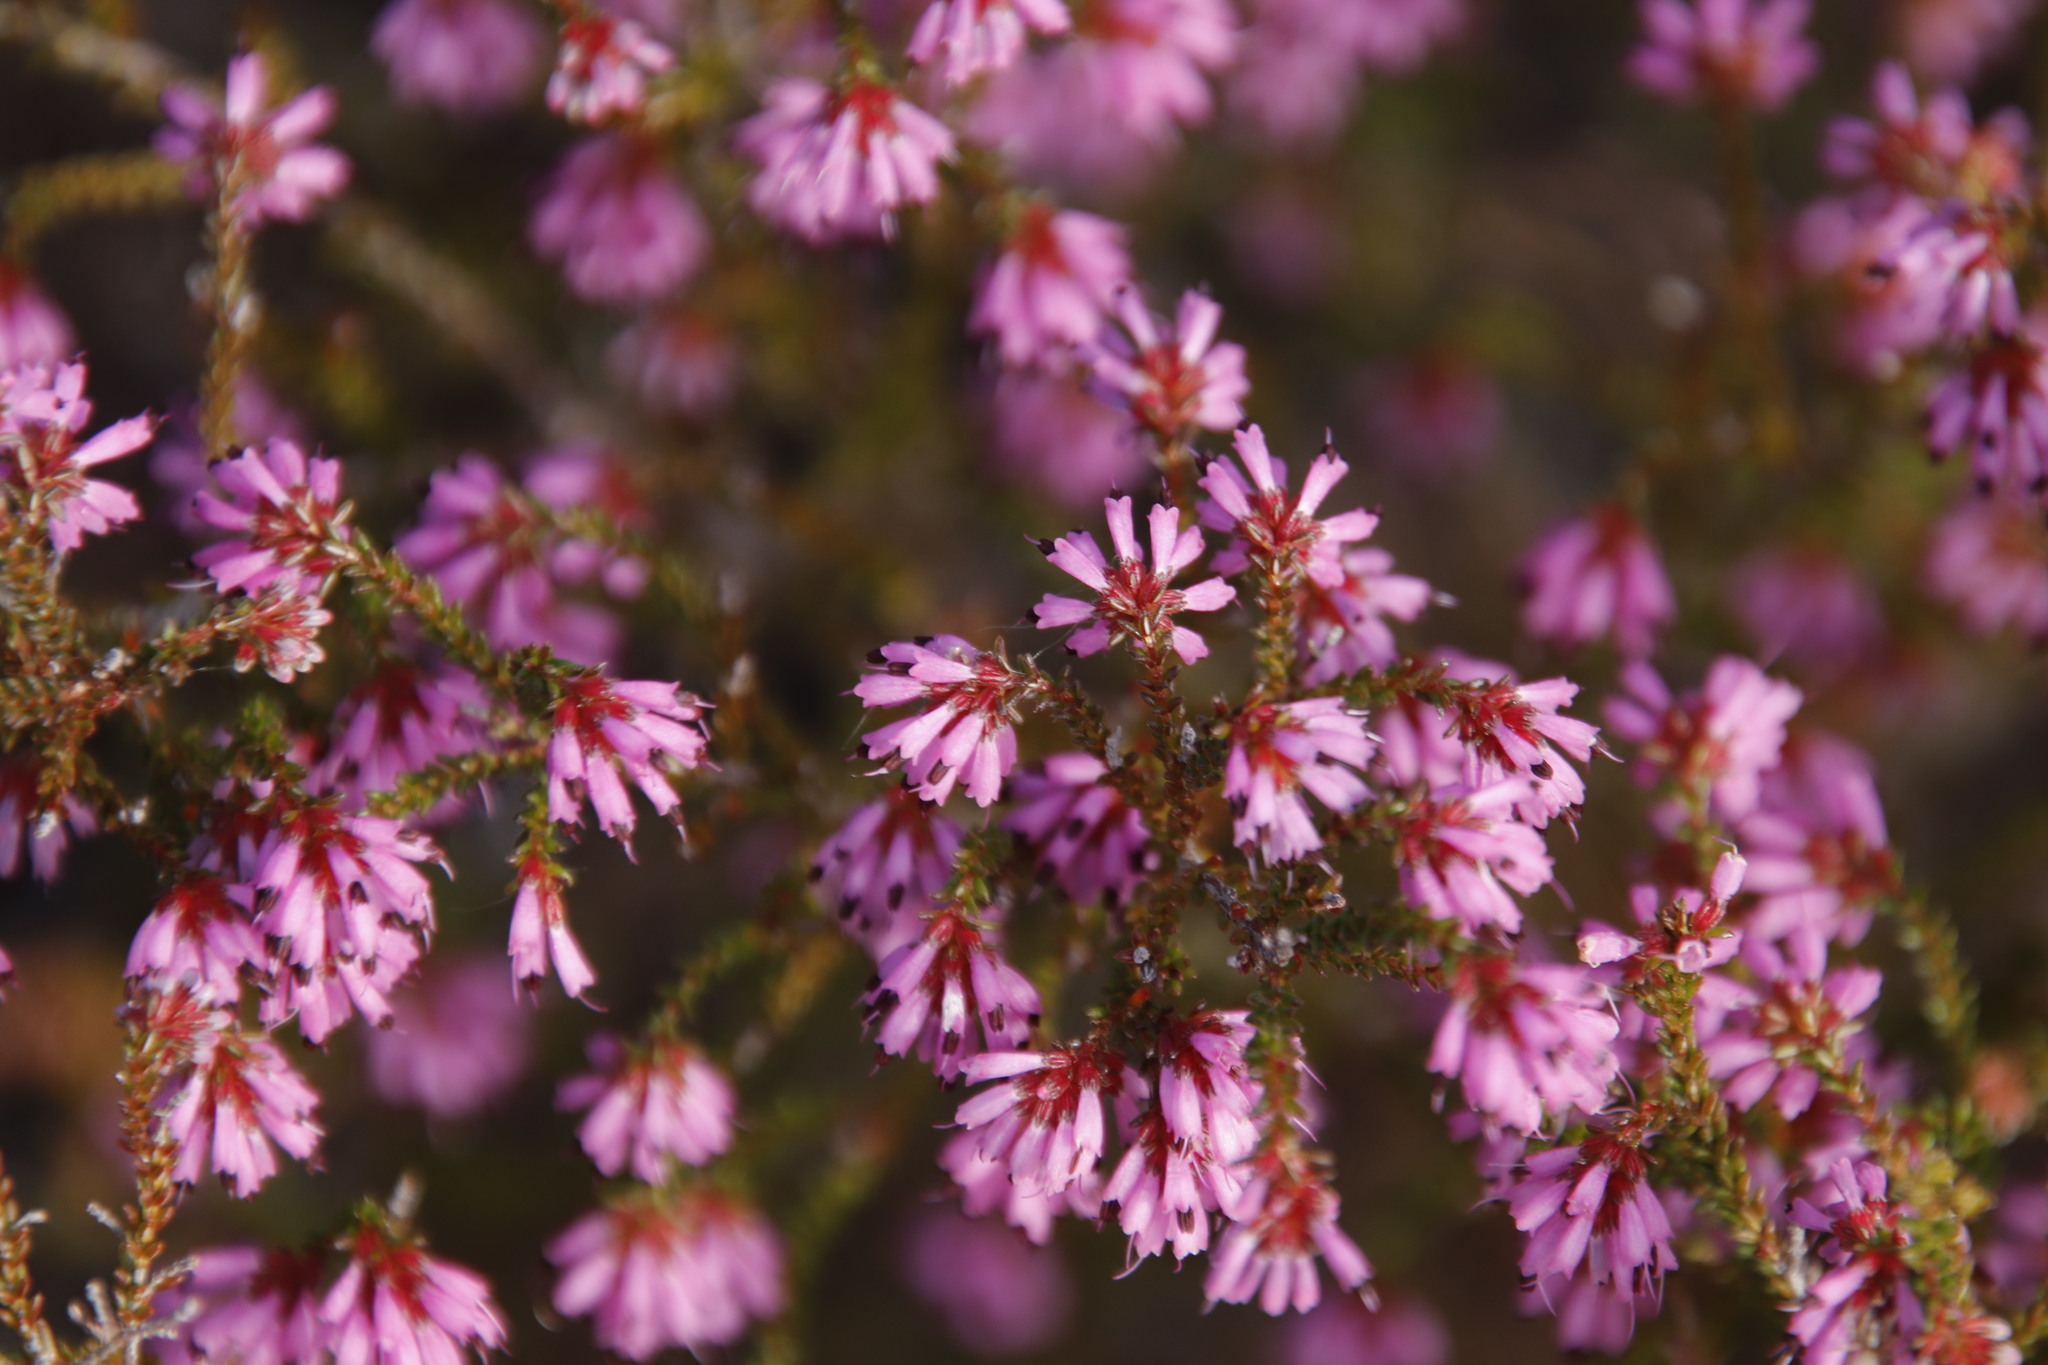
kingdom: Plantae
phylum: Tracheophyta
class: Magnoliopsida
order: Ericales
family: Ericaceae
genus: Erica
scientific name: Erica glabella
